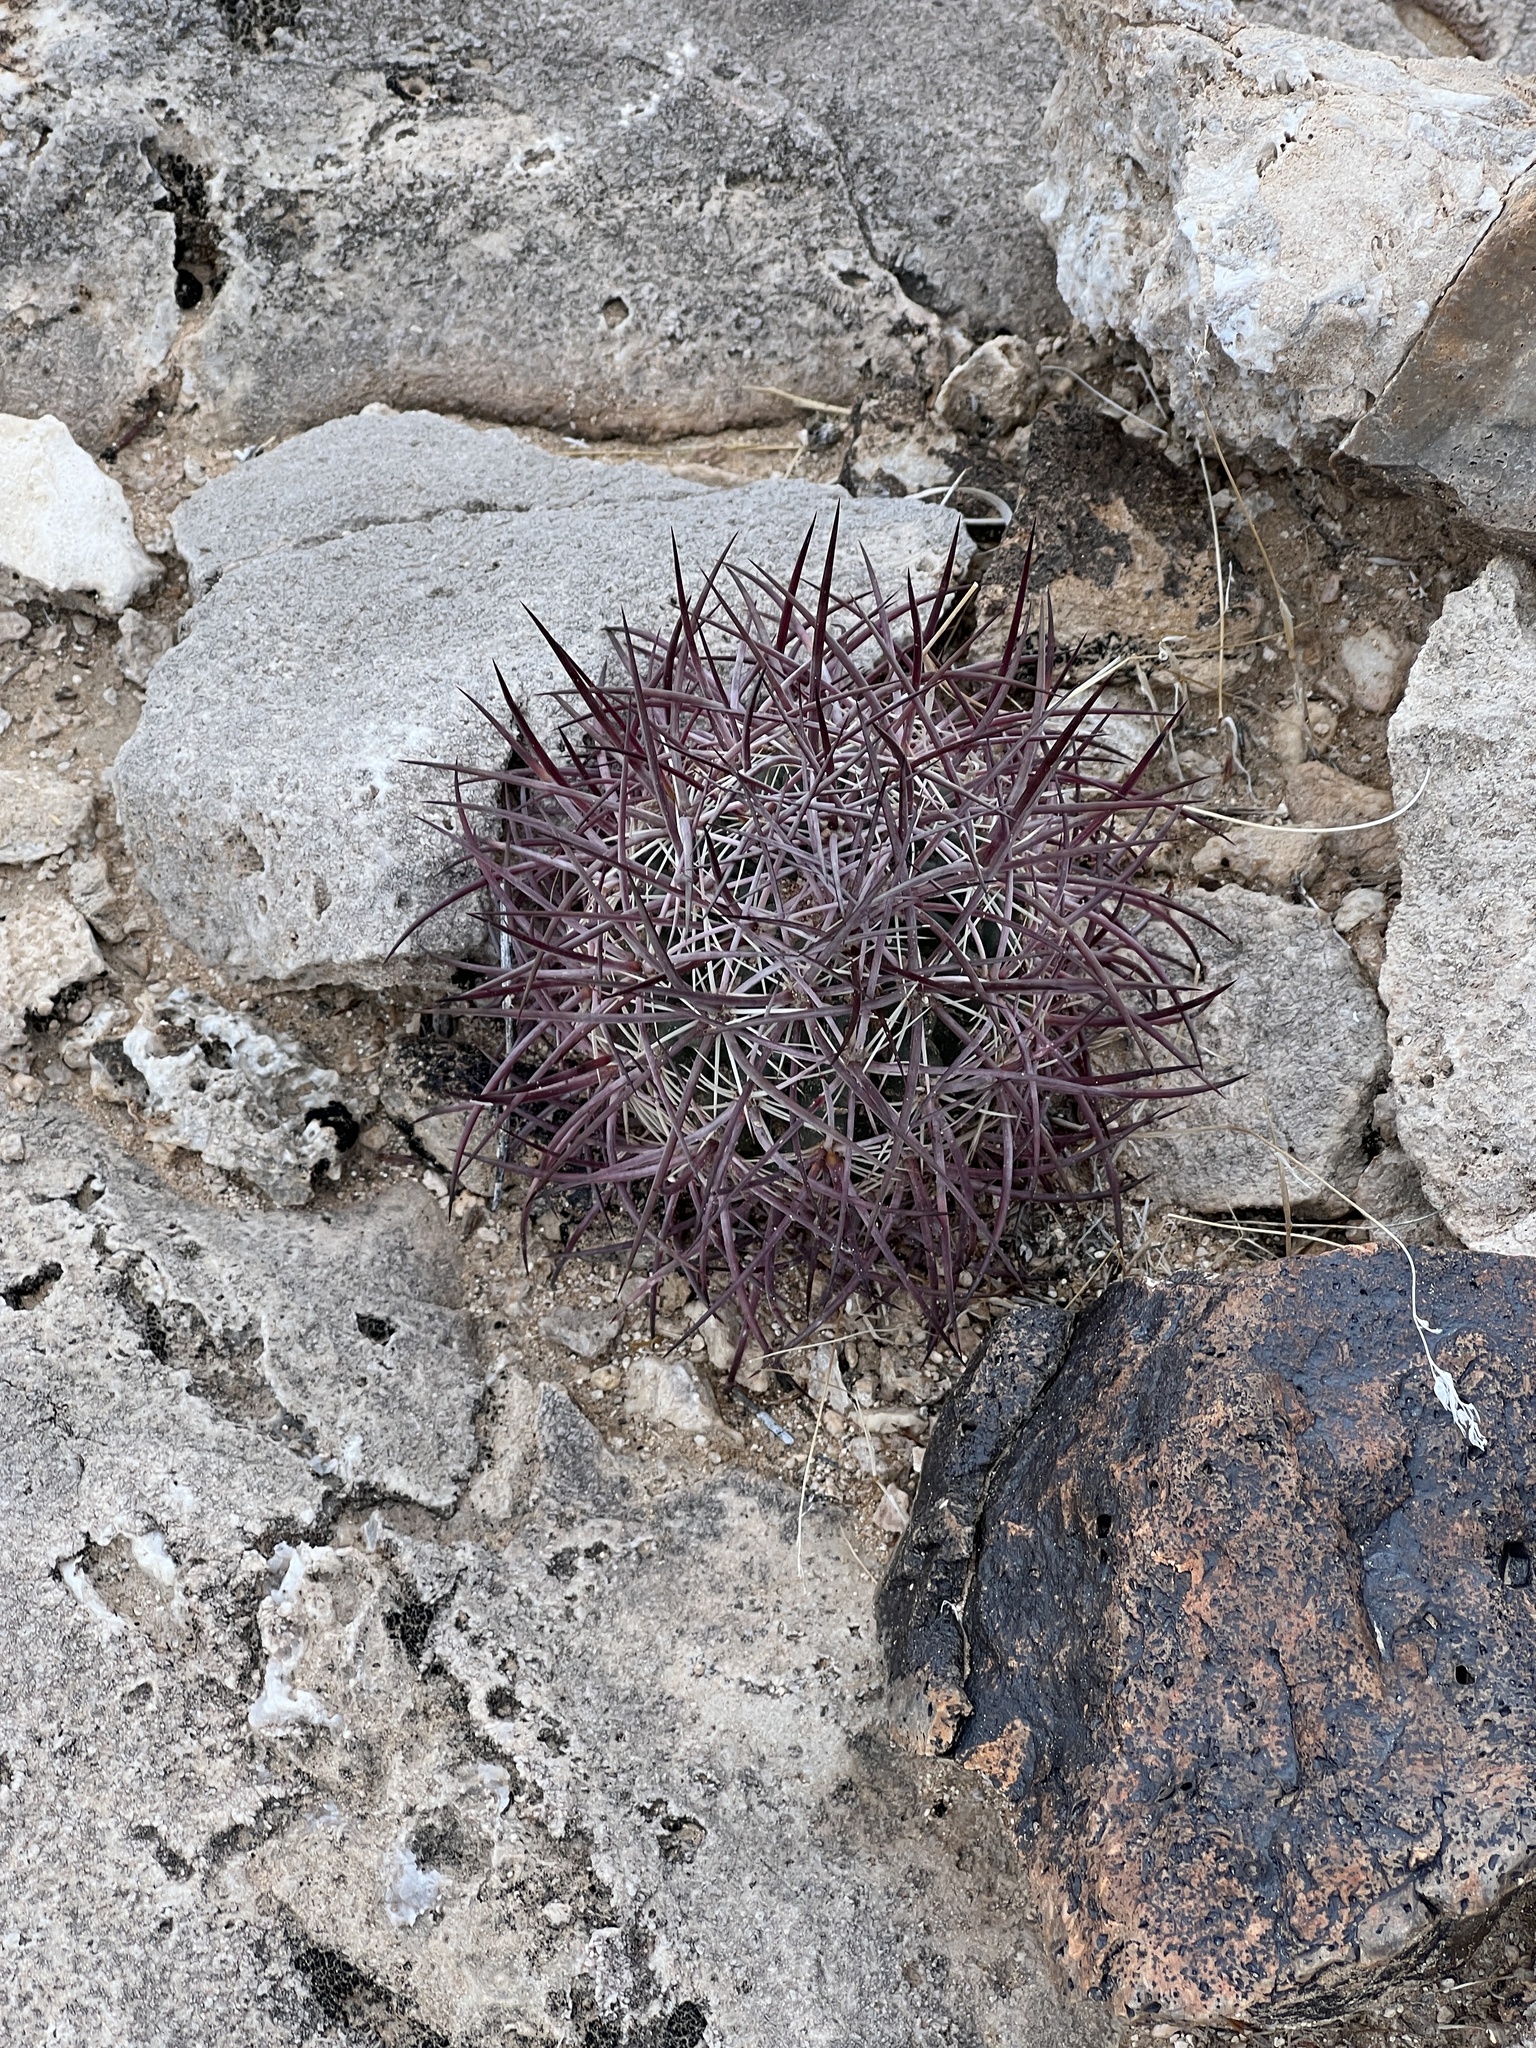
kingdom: Plantae
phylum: Tracheophyta
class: Magnoliopsida
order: Caryophyllales
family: Cactaceae
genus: Sclerocactus
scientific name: Sclerocactus johnsonii
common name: Eight-spine fishhook cactus
